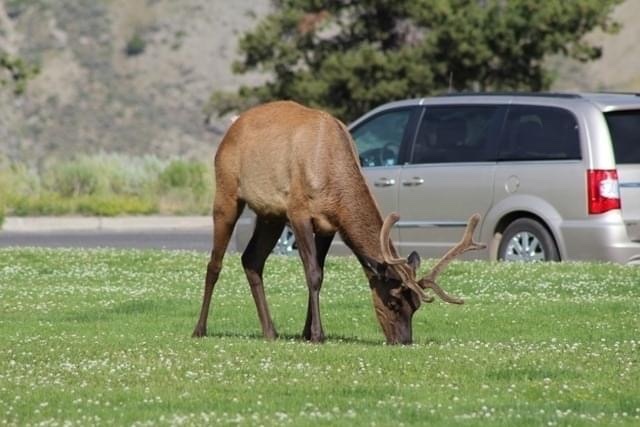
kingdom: Animalia
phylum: Chordata
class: Mammalia
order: Artiodactyla
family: Cervidae
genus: Cervus
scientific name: Cervus elaphus
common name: Red deer
